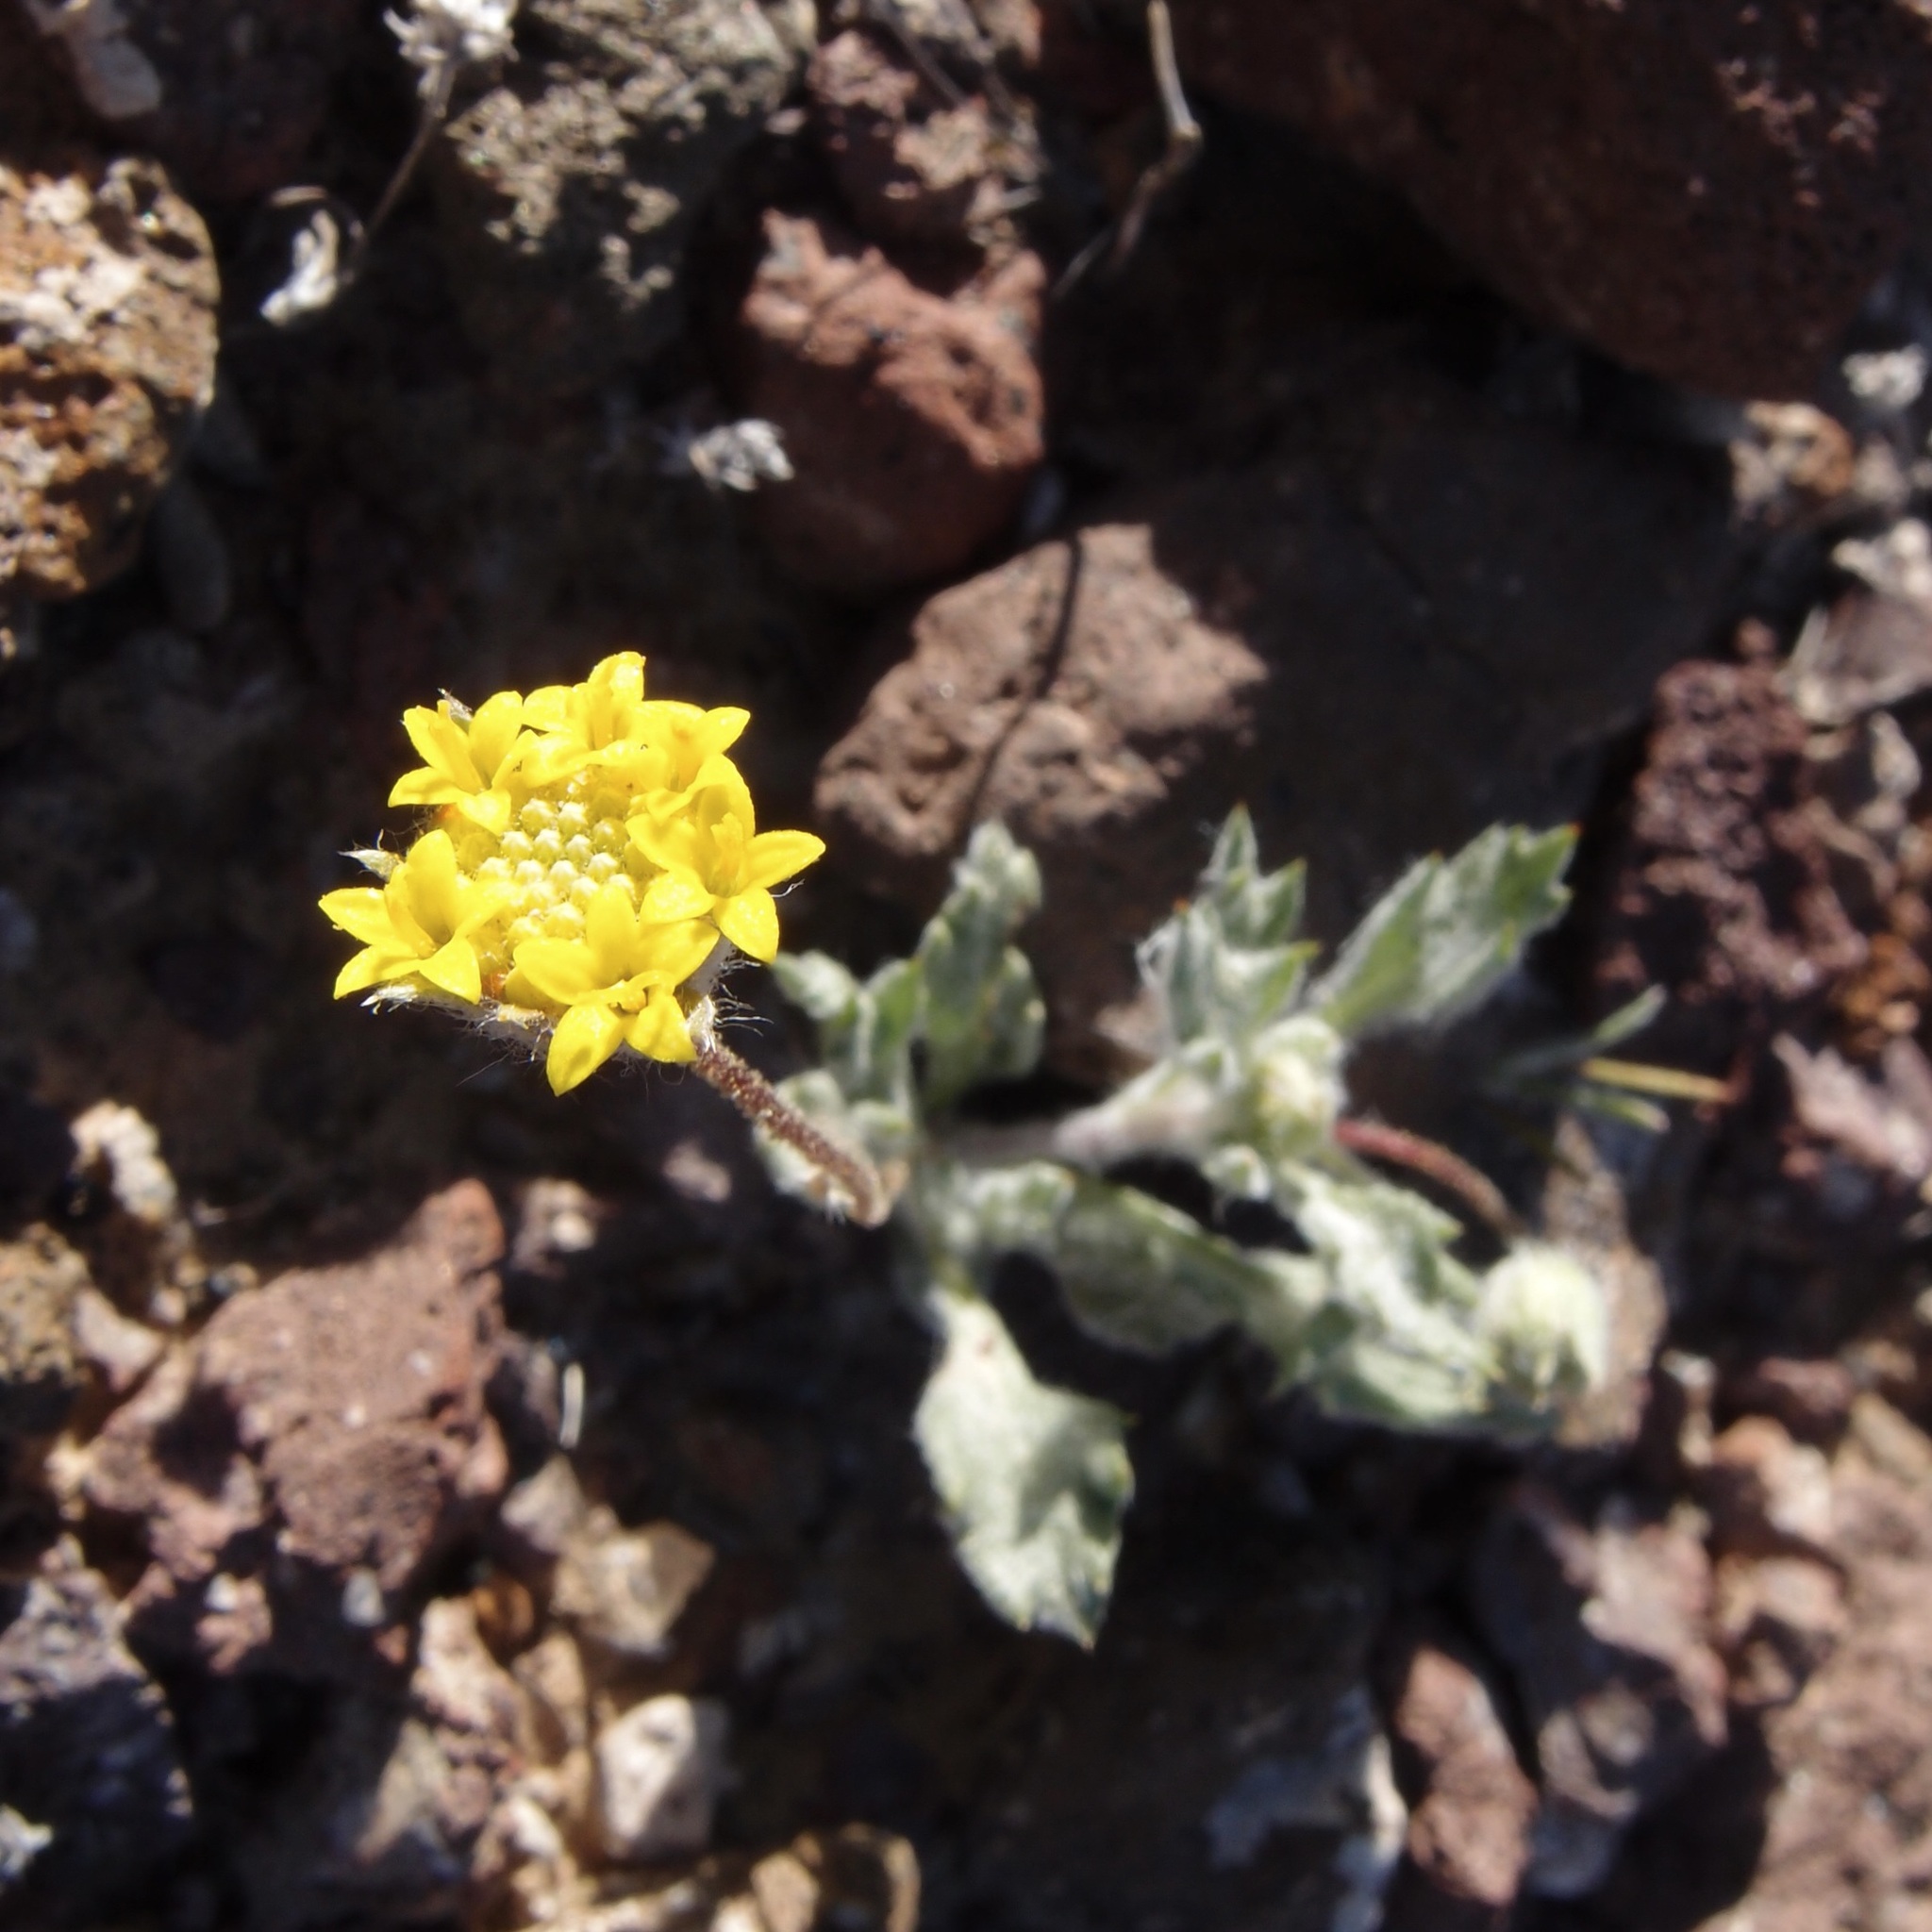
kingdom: Plantae
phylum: Tracheophyta
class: Magnoliopsida
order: Asterales
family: Asteraceae
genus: Trichoptilium
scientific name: Trichoptilium incisum
